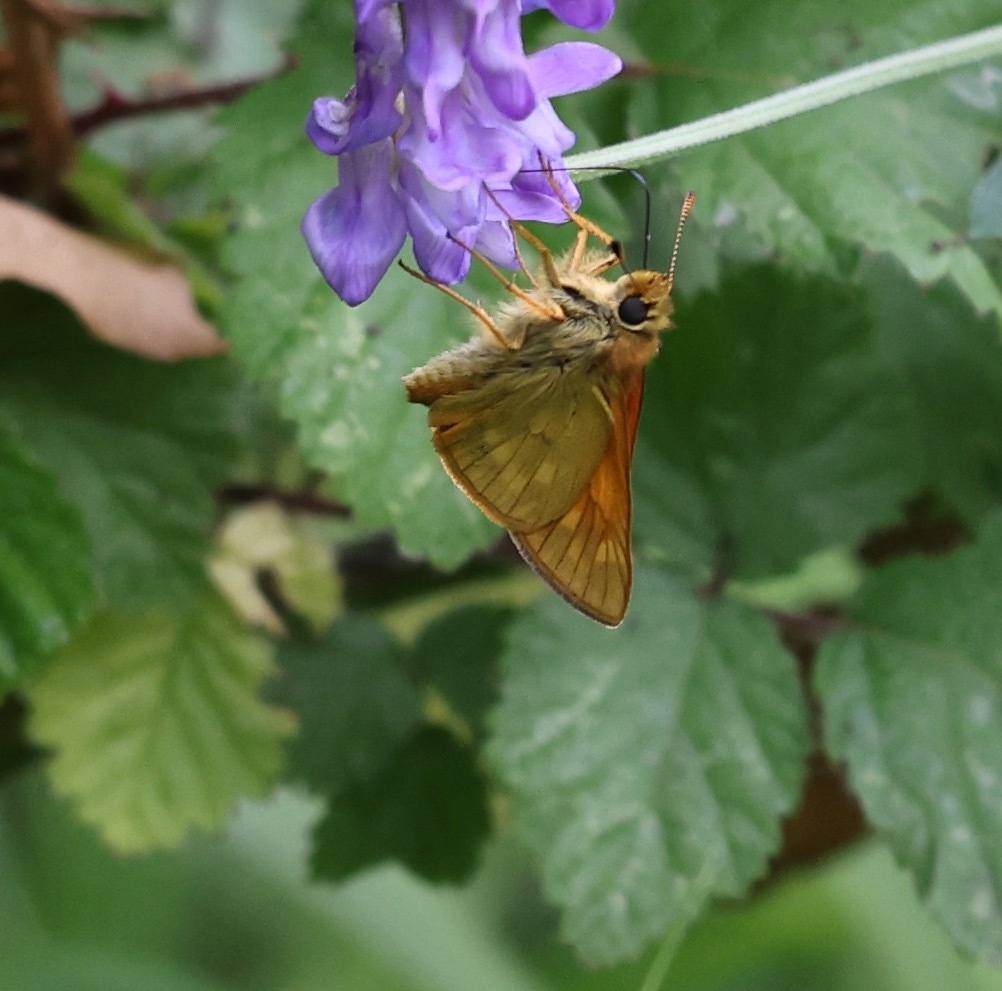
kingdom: Animalia
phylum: Arthropoda
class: Insecta
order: Lepidoptera
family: Hesperiidae
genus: Ochlodes
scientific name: Ochlodes venata
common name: Large skipper
